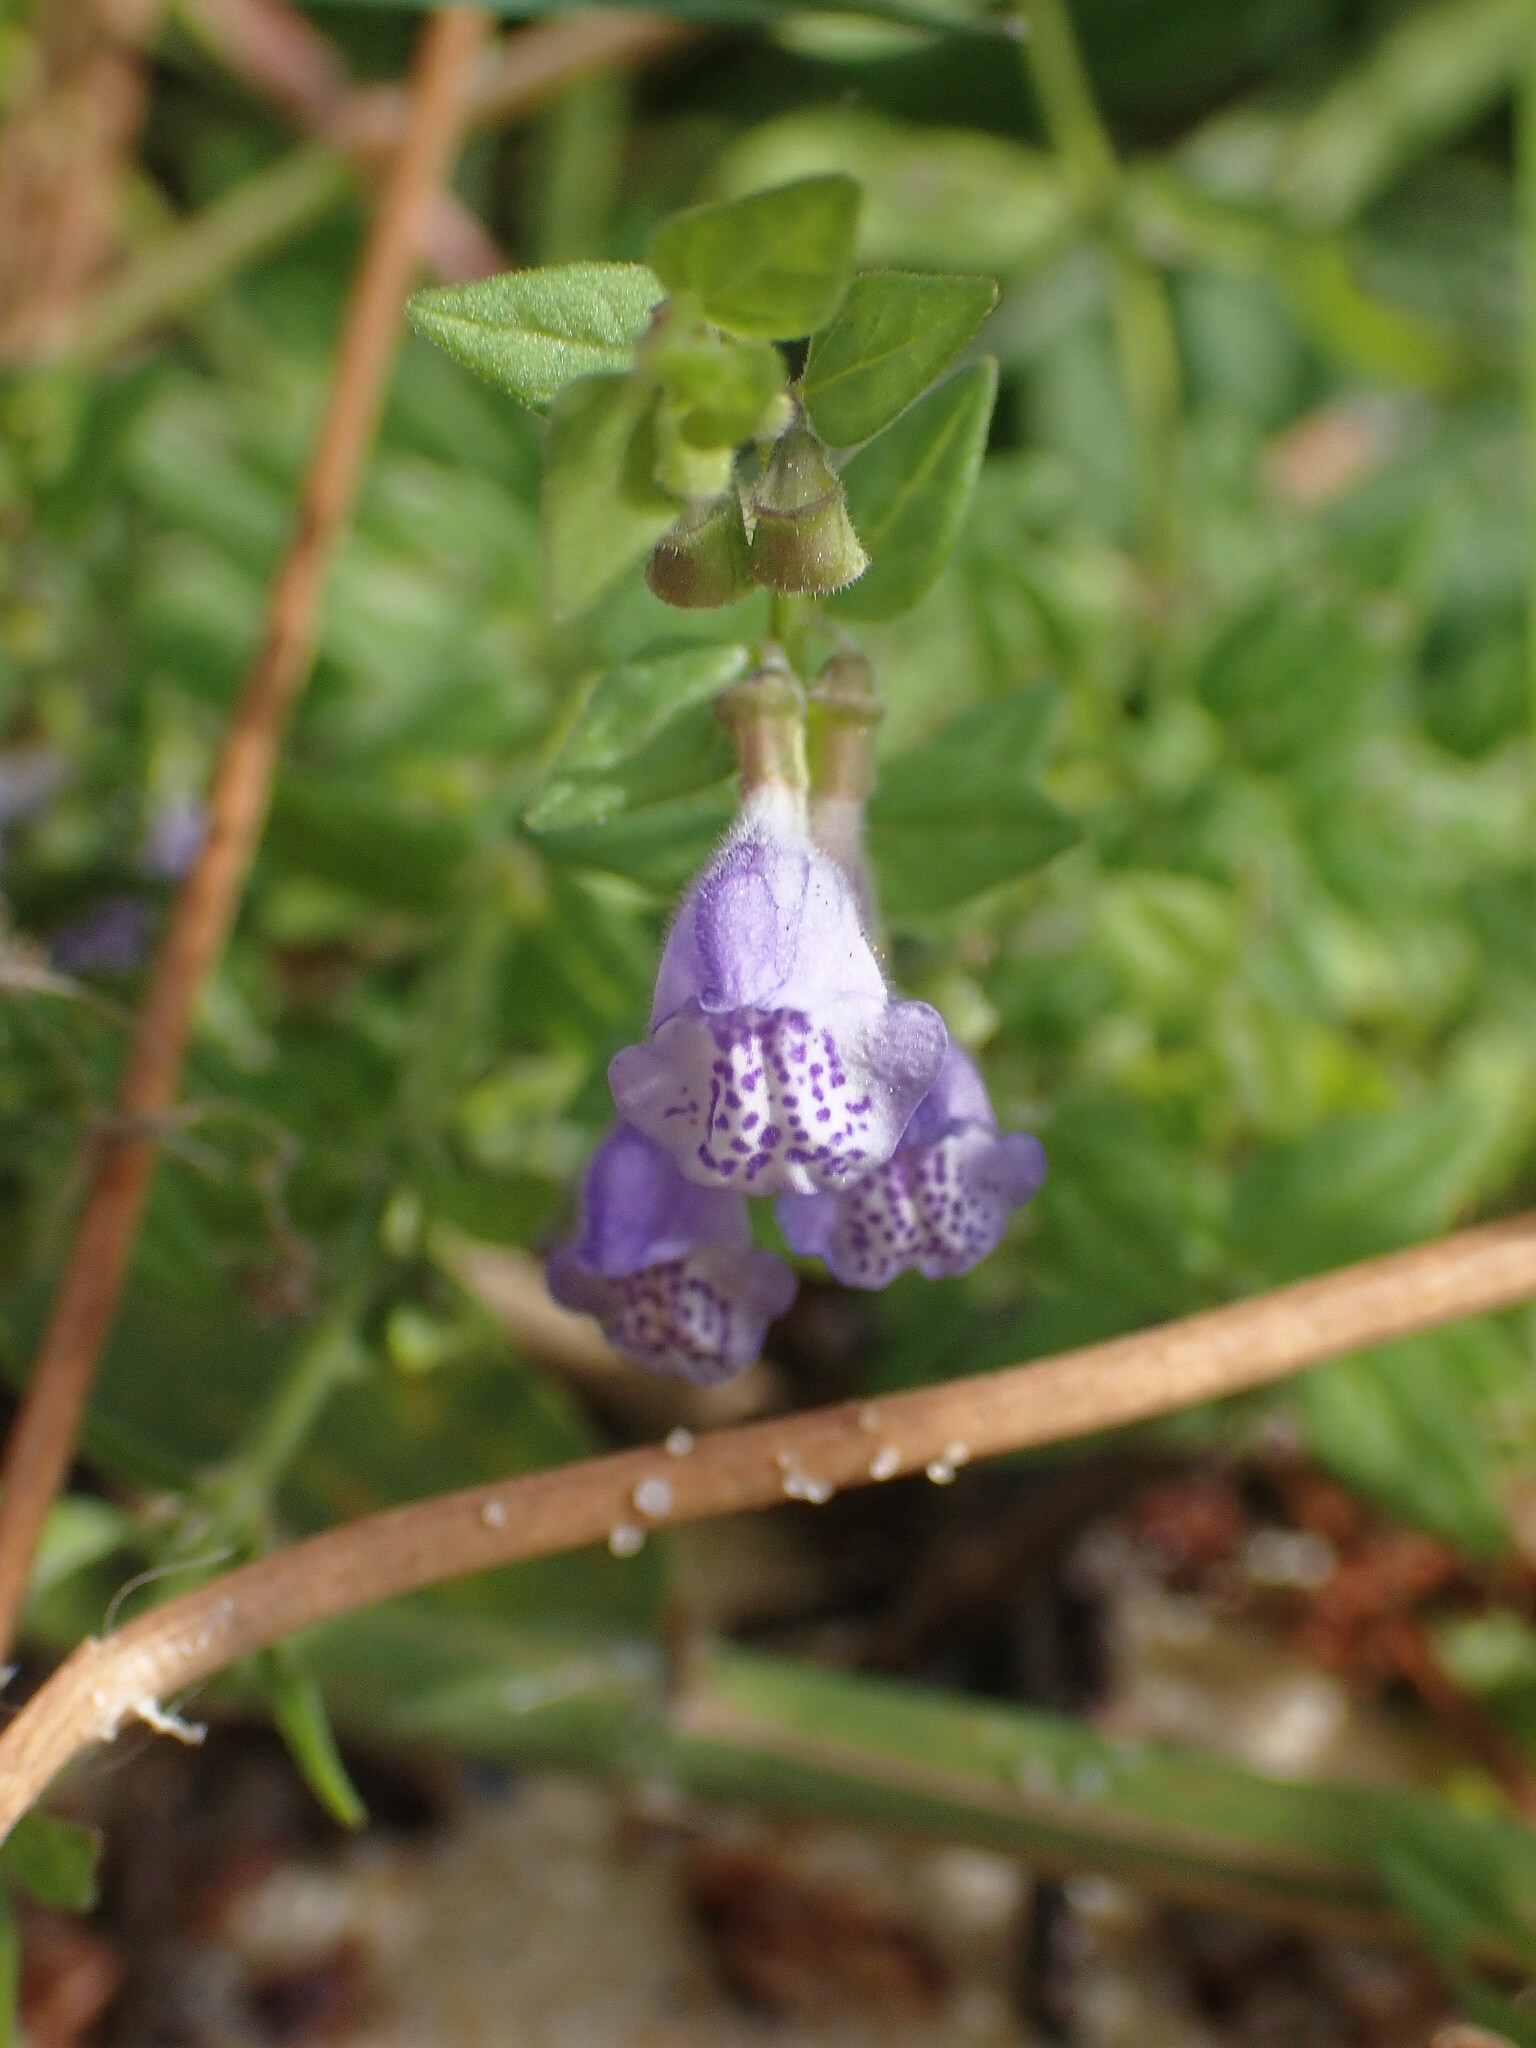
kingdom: Plantae
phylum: Tracheophyta
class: Magnoliopsida
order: Lamiales
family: Lamiaceae
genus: Scutellaria
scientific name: Scutellaria galericulata
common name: Skullcap
